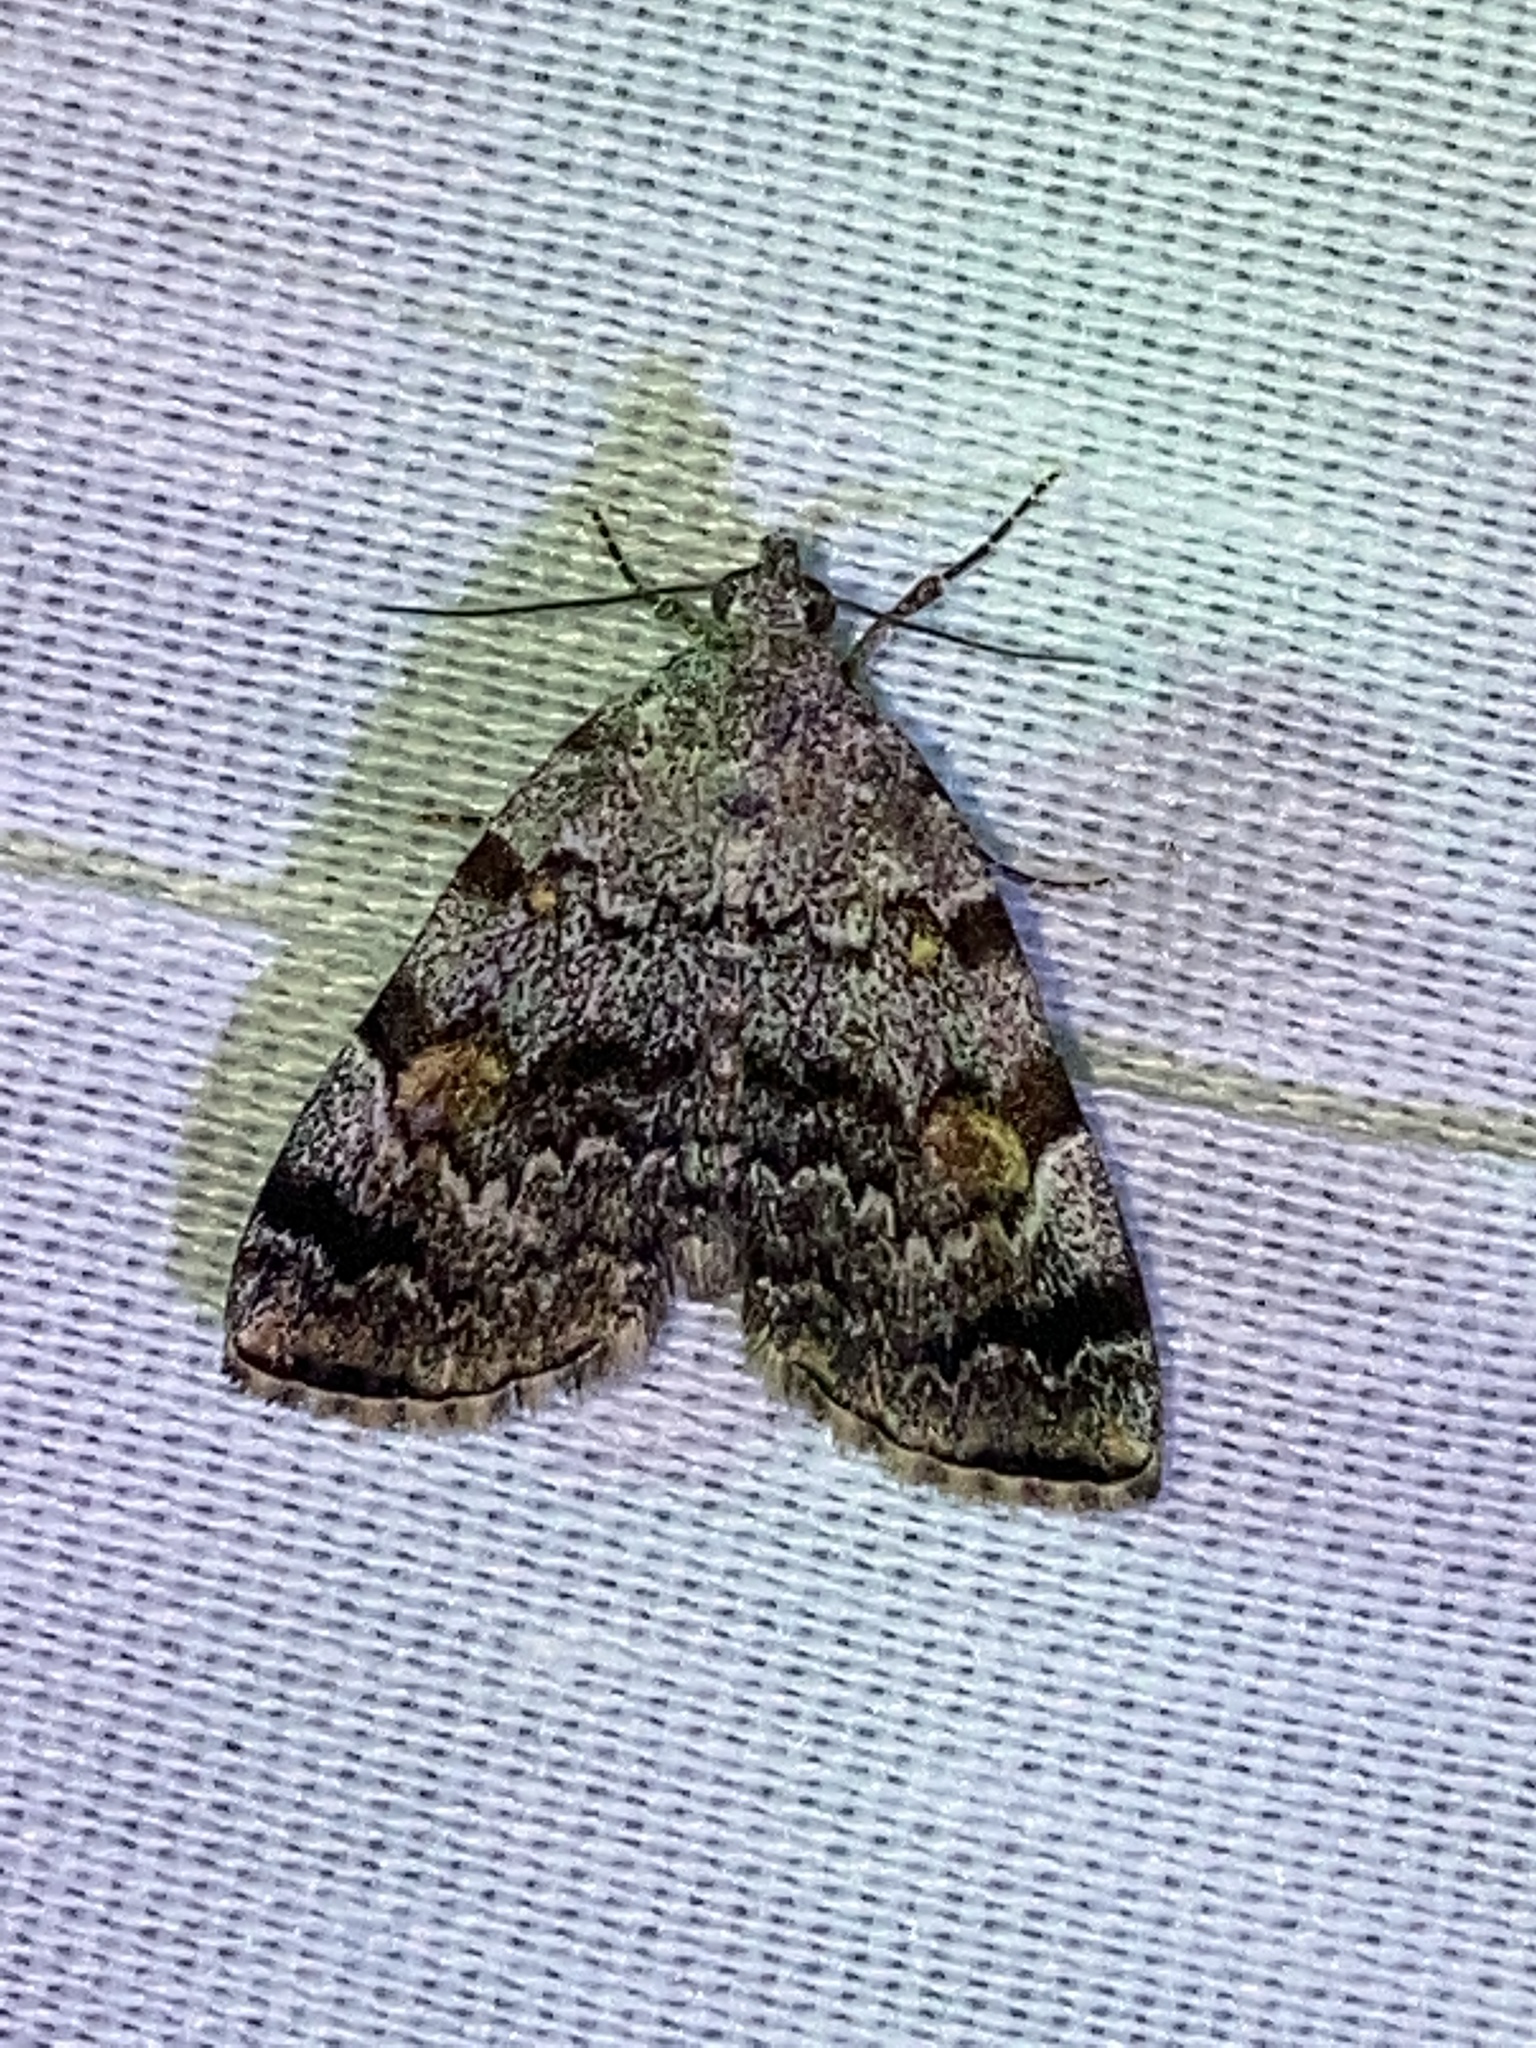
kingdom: Animalia
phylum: Arthropoda
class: Insecta
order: Lepidoptera
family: Erebidae
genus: Idia
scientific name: Idia americalis
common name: American idia moth
